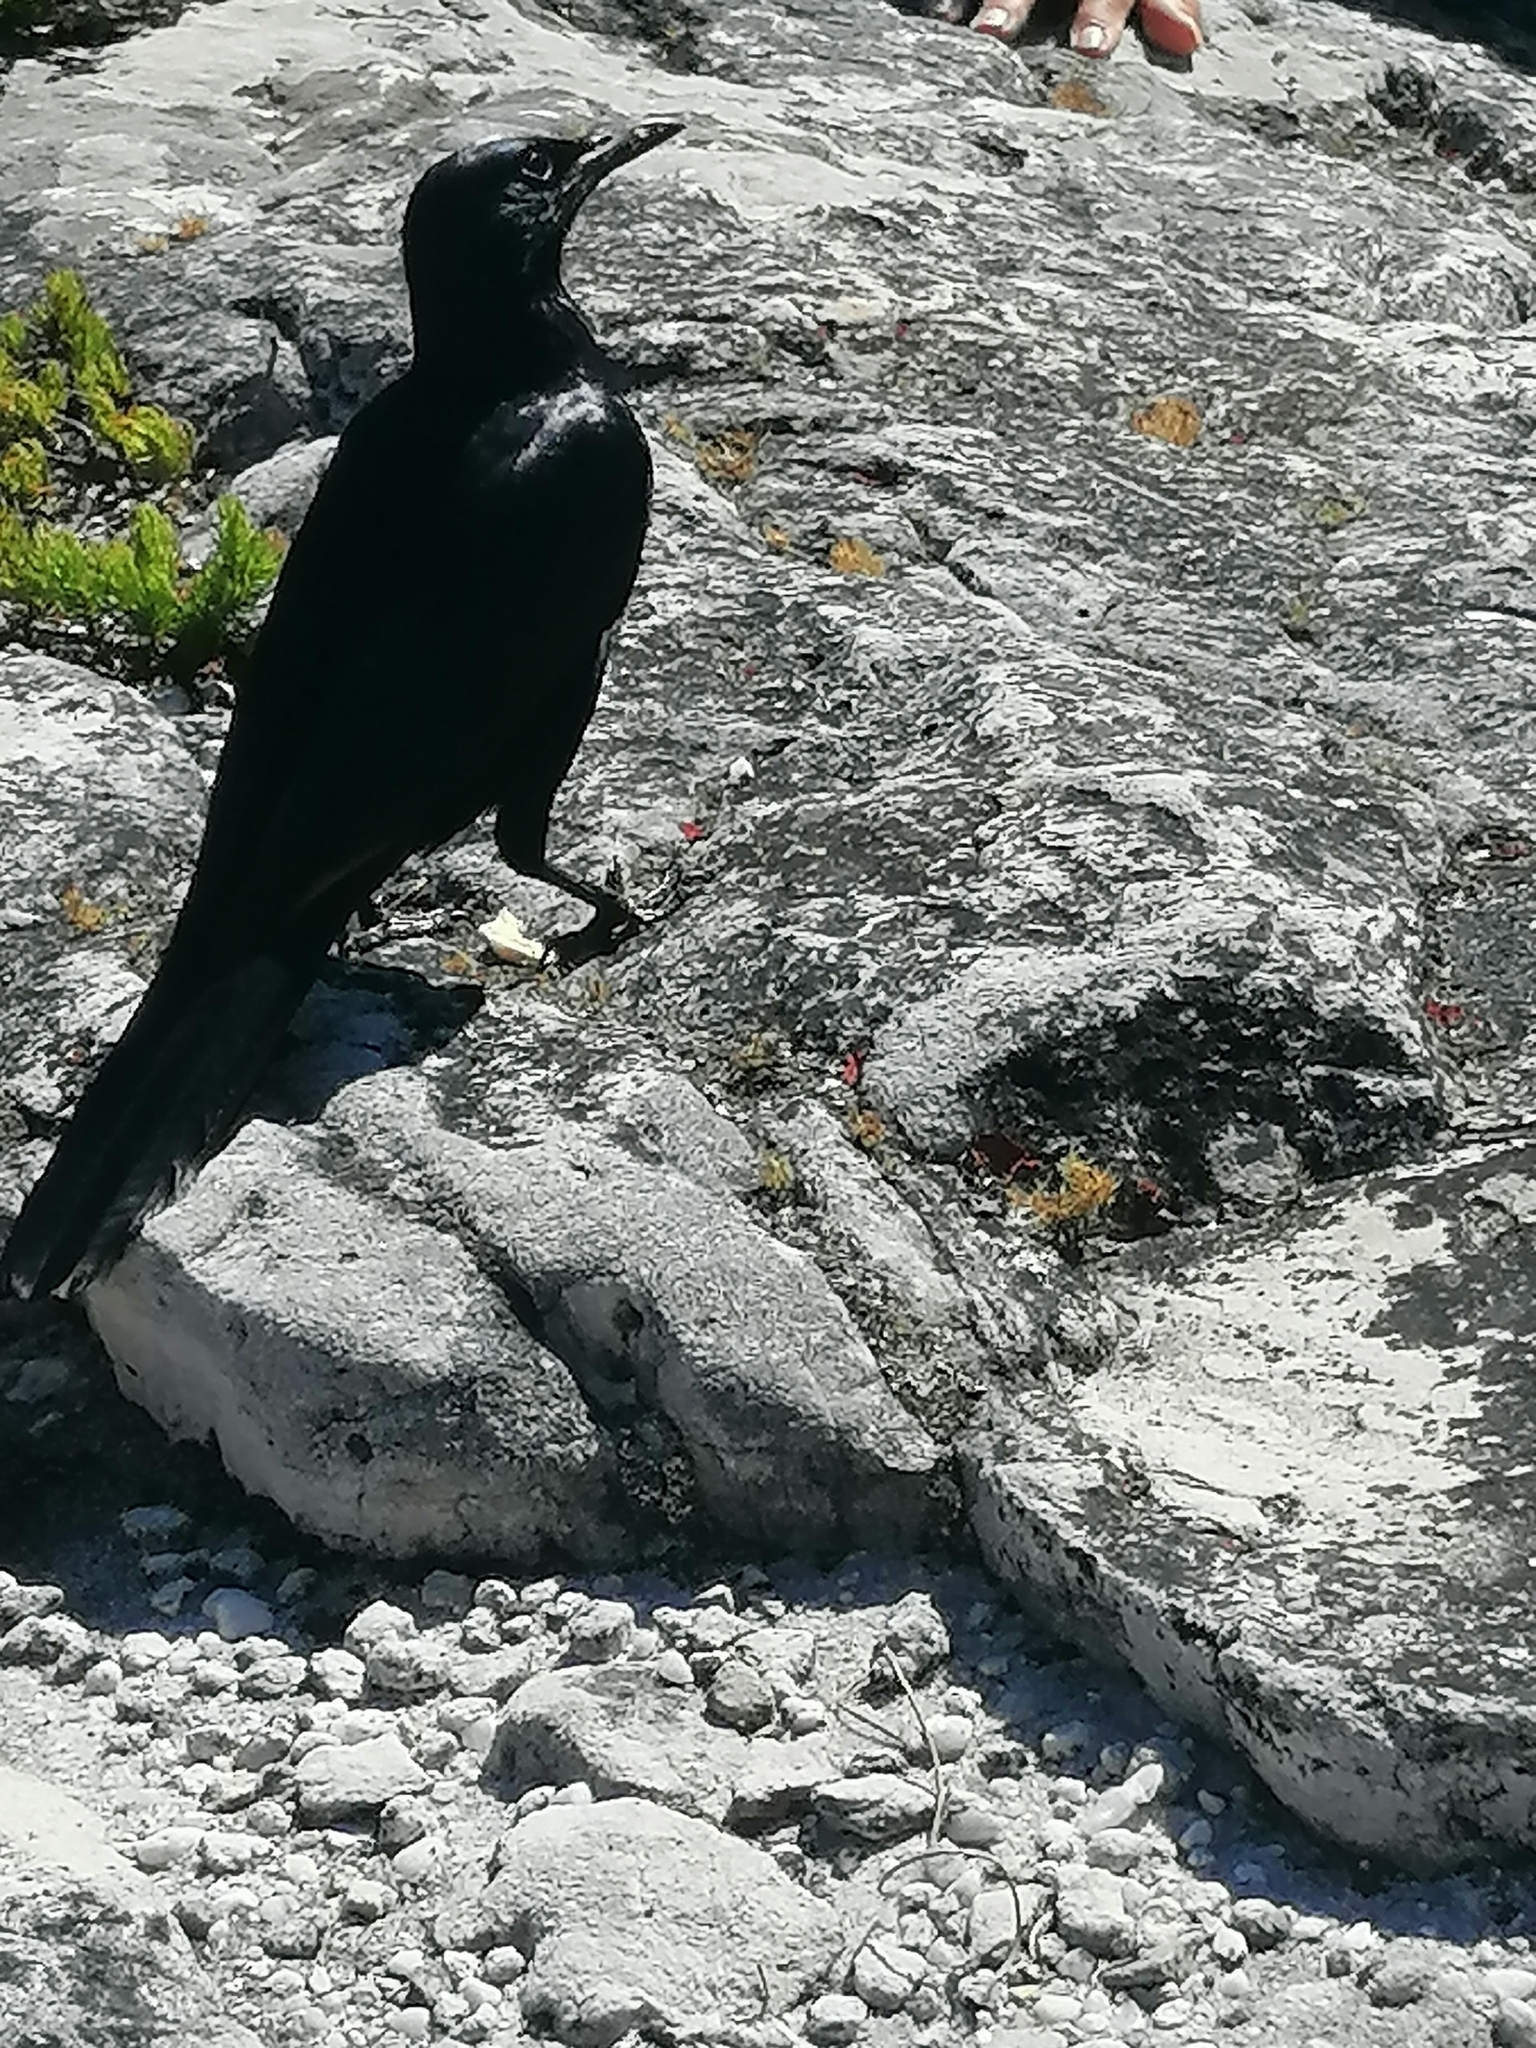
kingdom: Animalia
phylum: Chordata
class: Aves
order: Passeriformes
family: Sturnidae
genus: Onychognathus
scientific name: Onychognathus morio
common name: Red-winged starling
